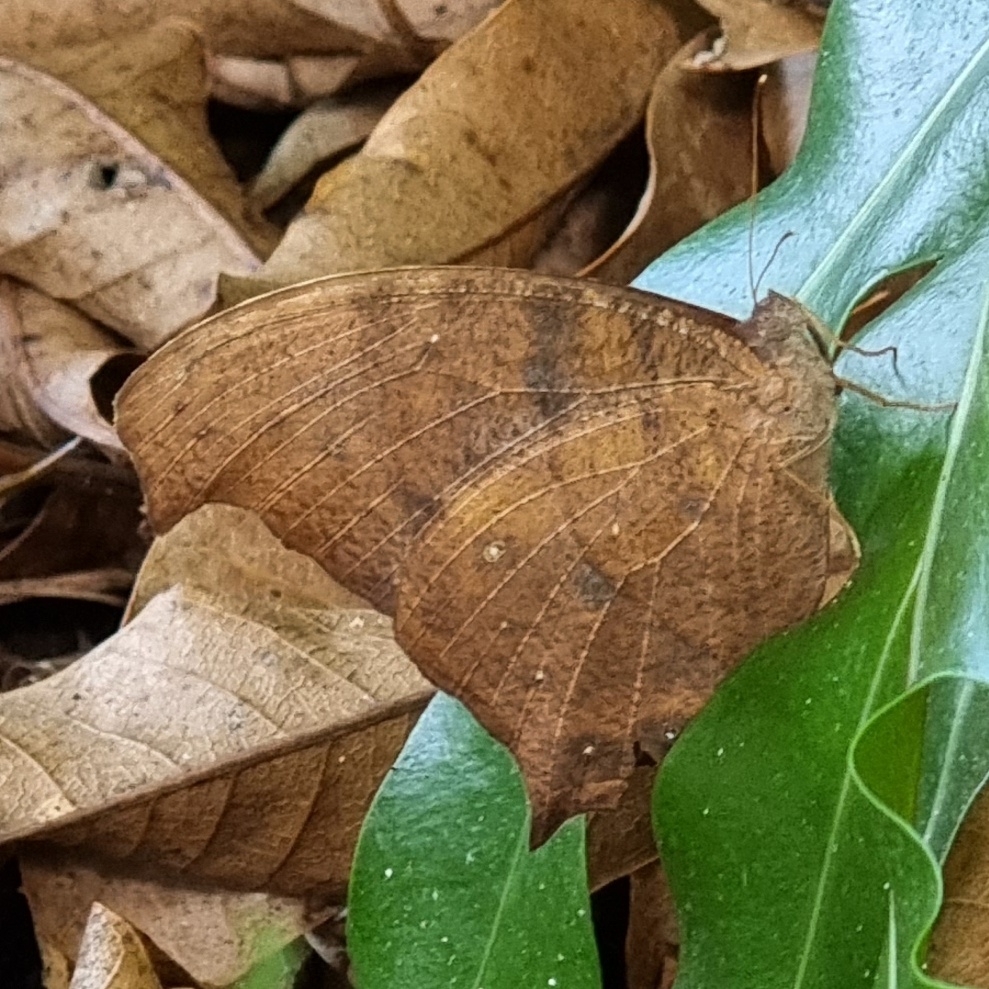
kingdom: Animalia
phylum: Arthropoda
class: Insecta
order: Lepidoptera
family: Nymphalidae
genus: Melanitis
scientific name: Melanitis leda
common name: Twilight brown
